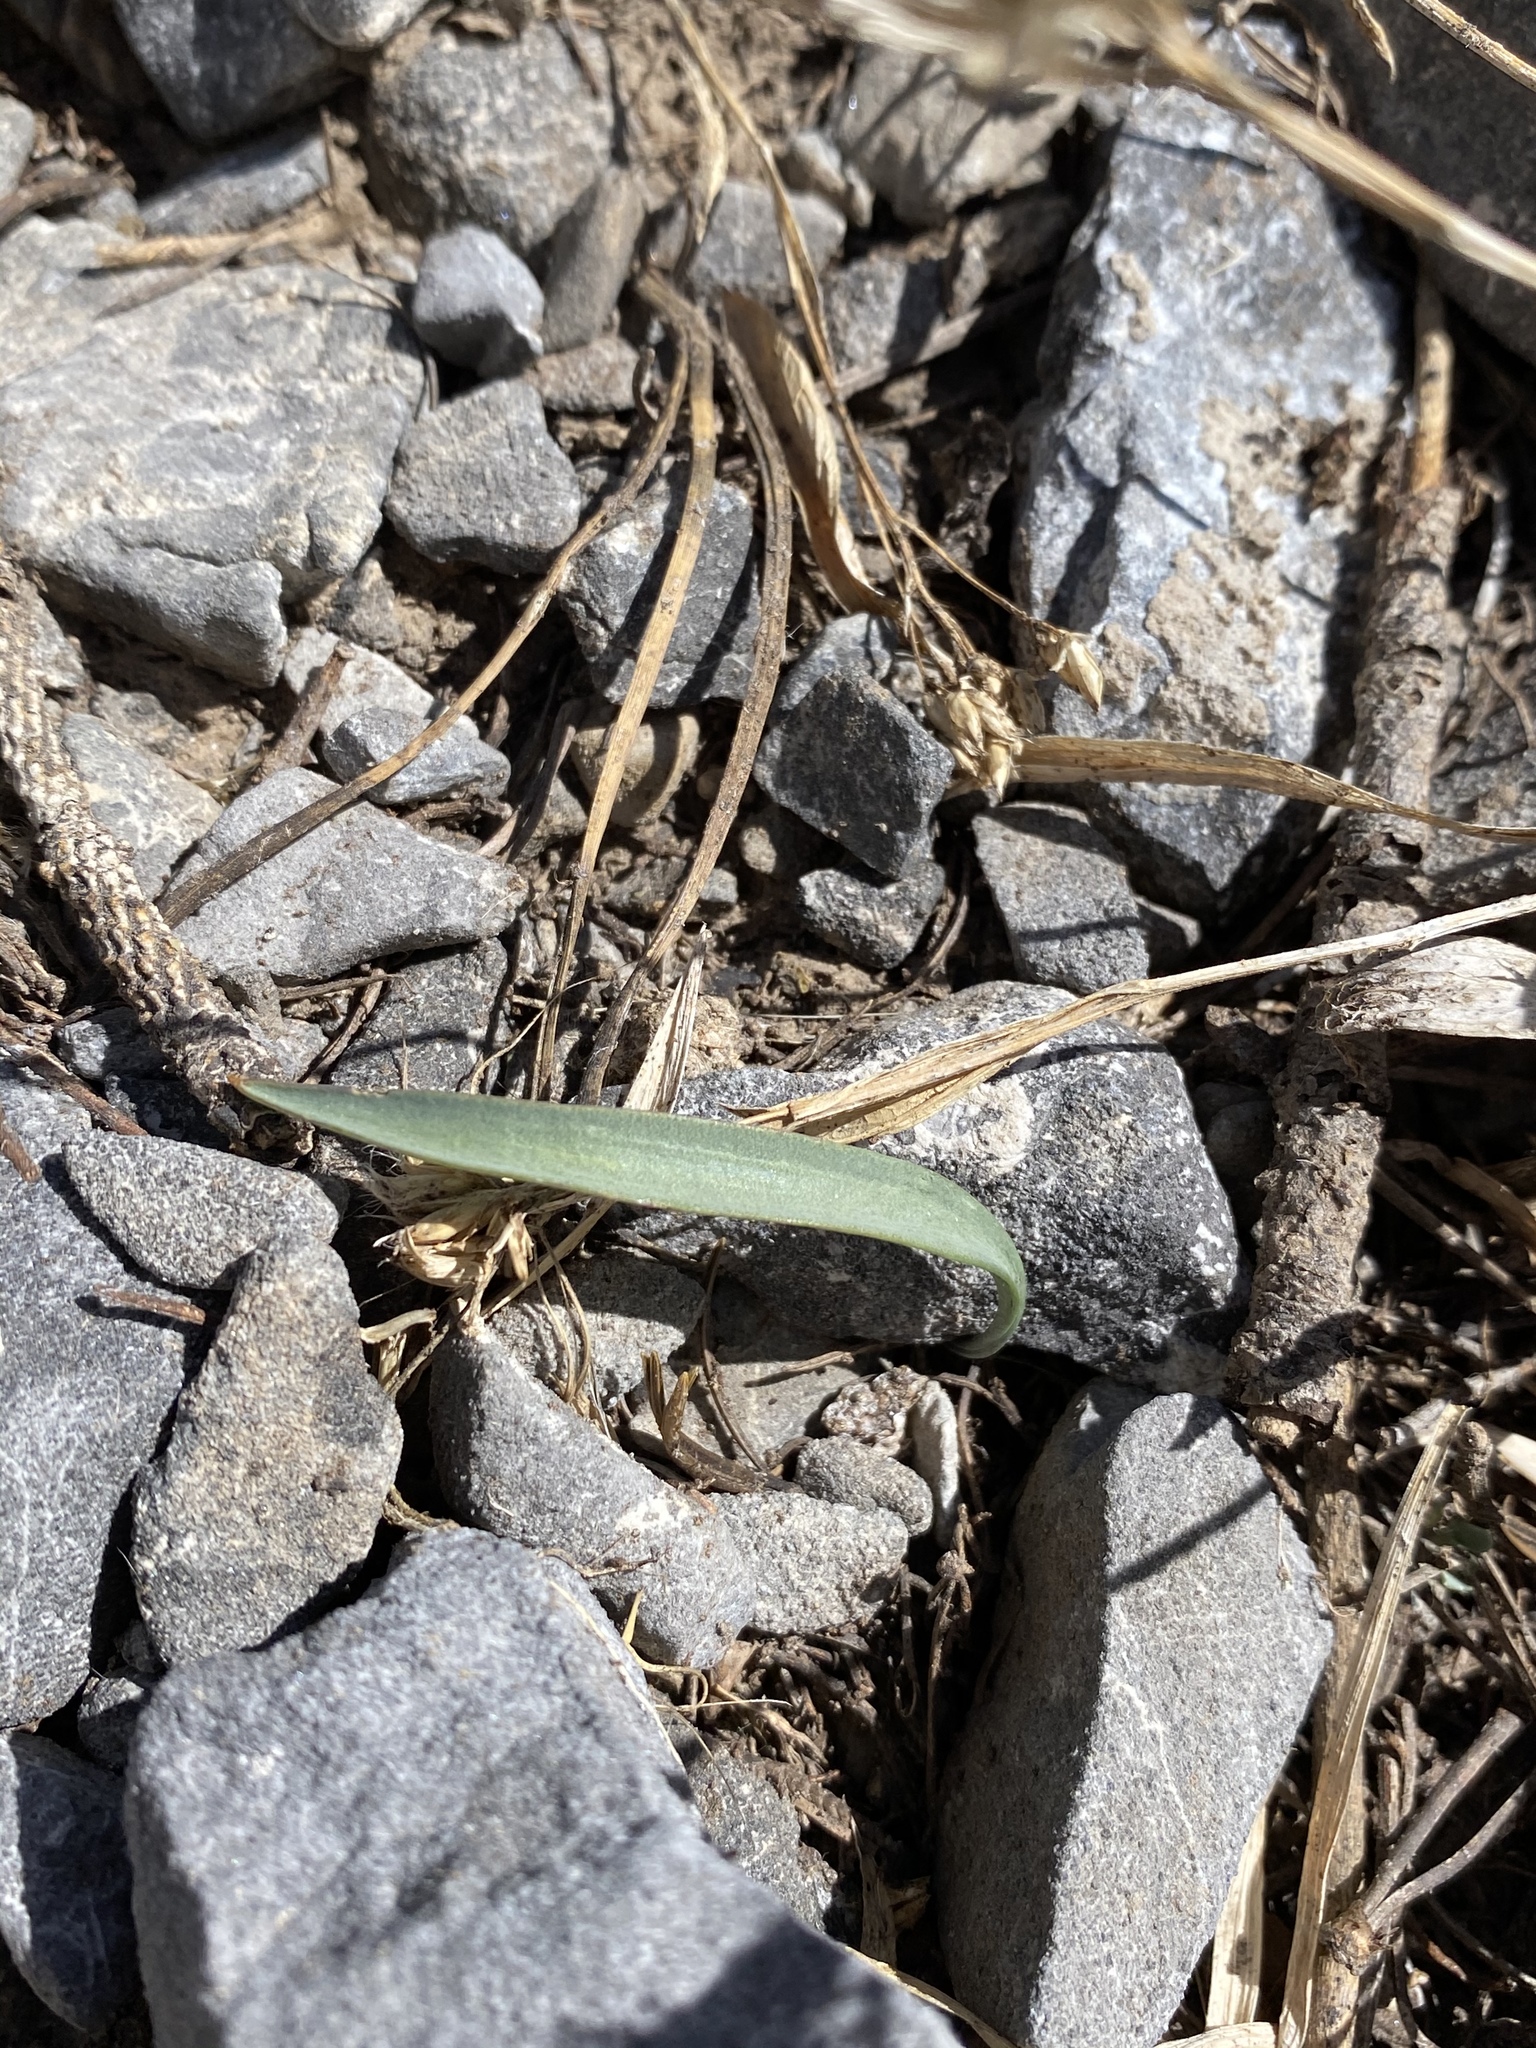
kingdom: Plantae
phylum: Tracheophyta
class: Liliopsida
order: Liliales
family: Liliaceae
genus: Fritillaria
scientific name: Fritillaria atropurpurea
